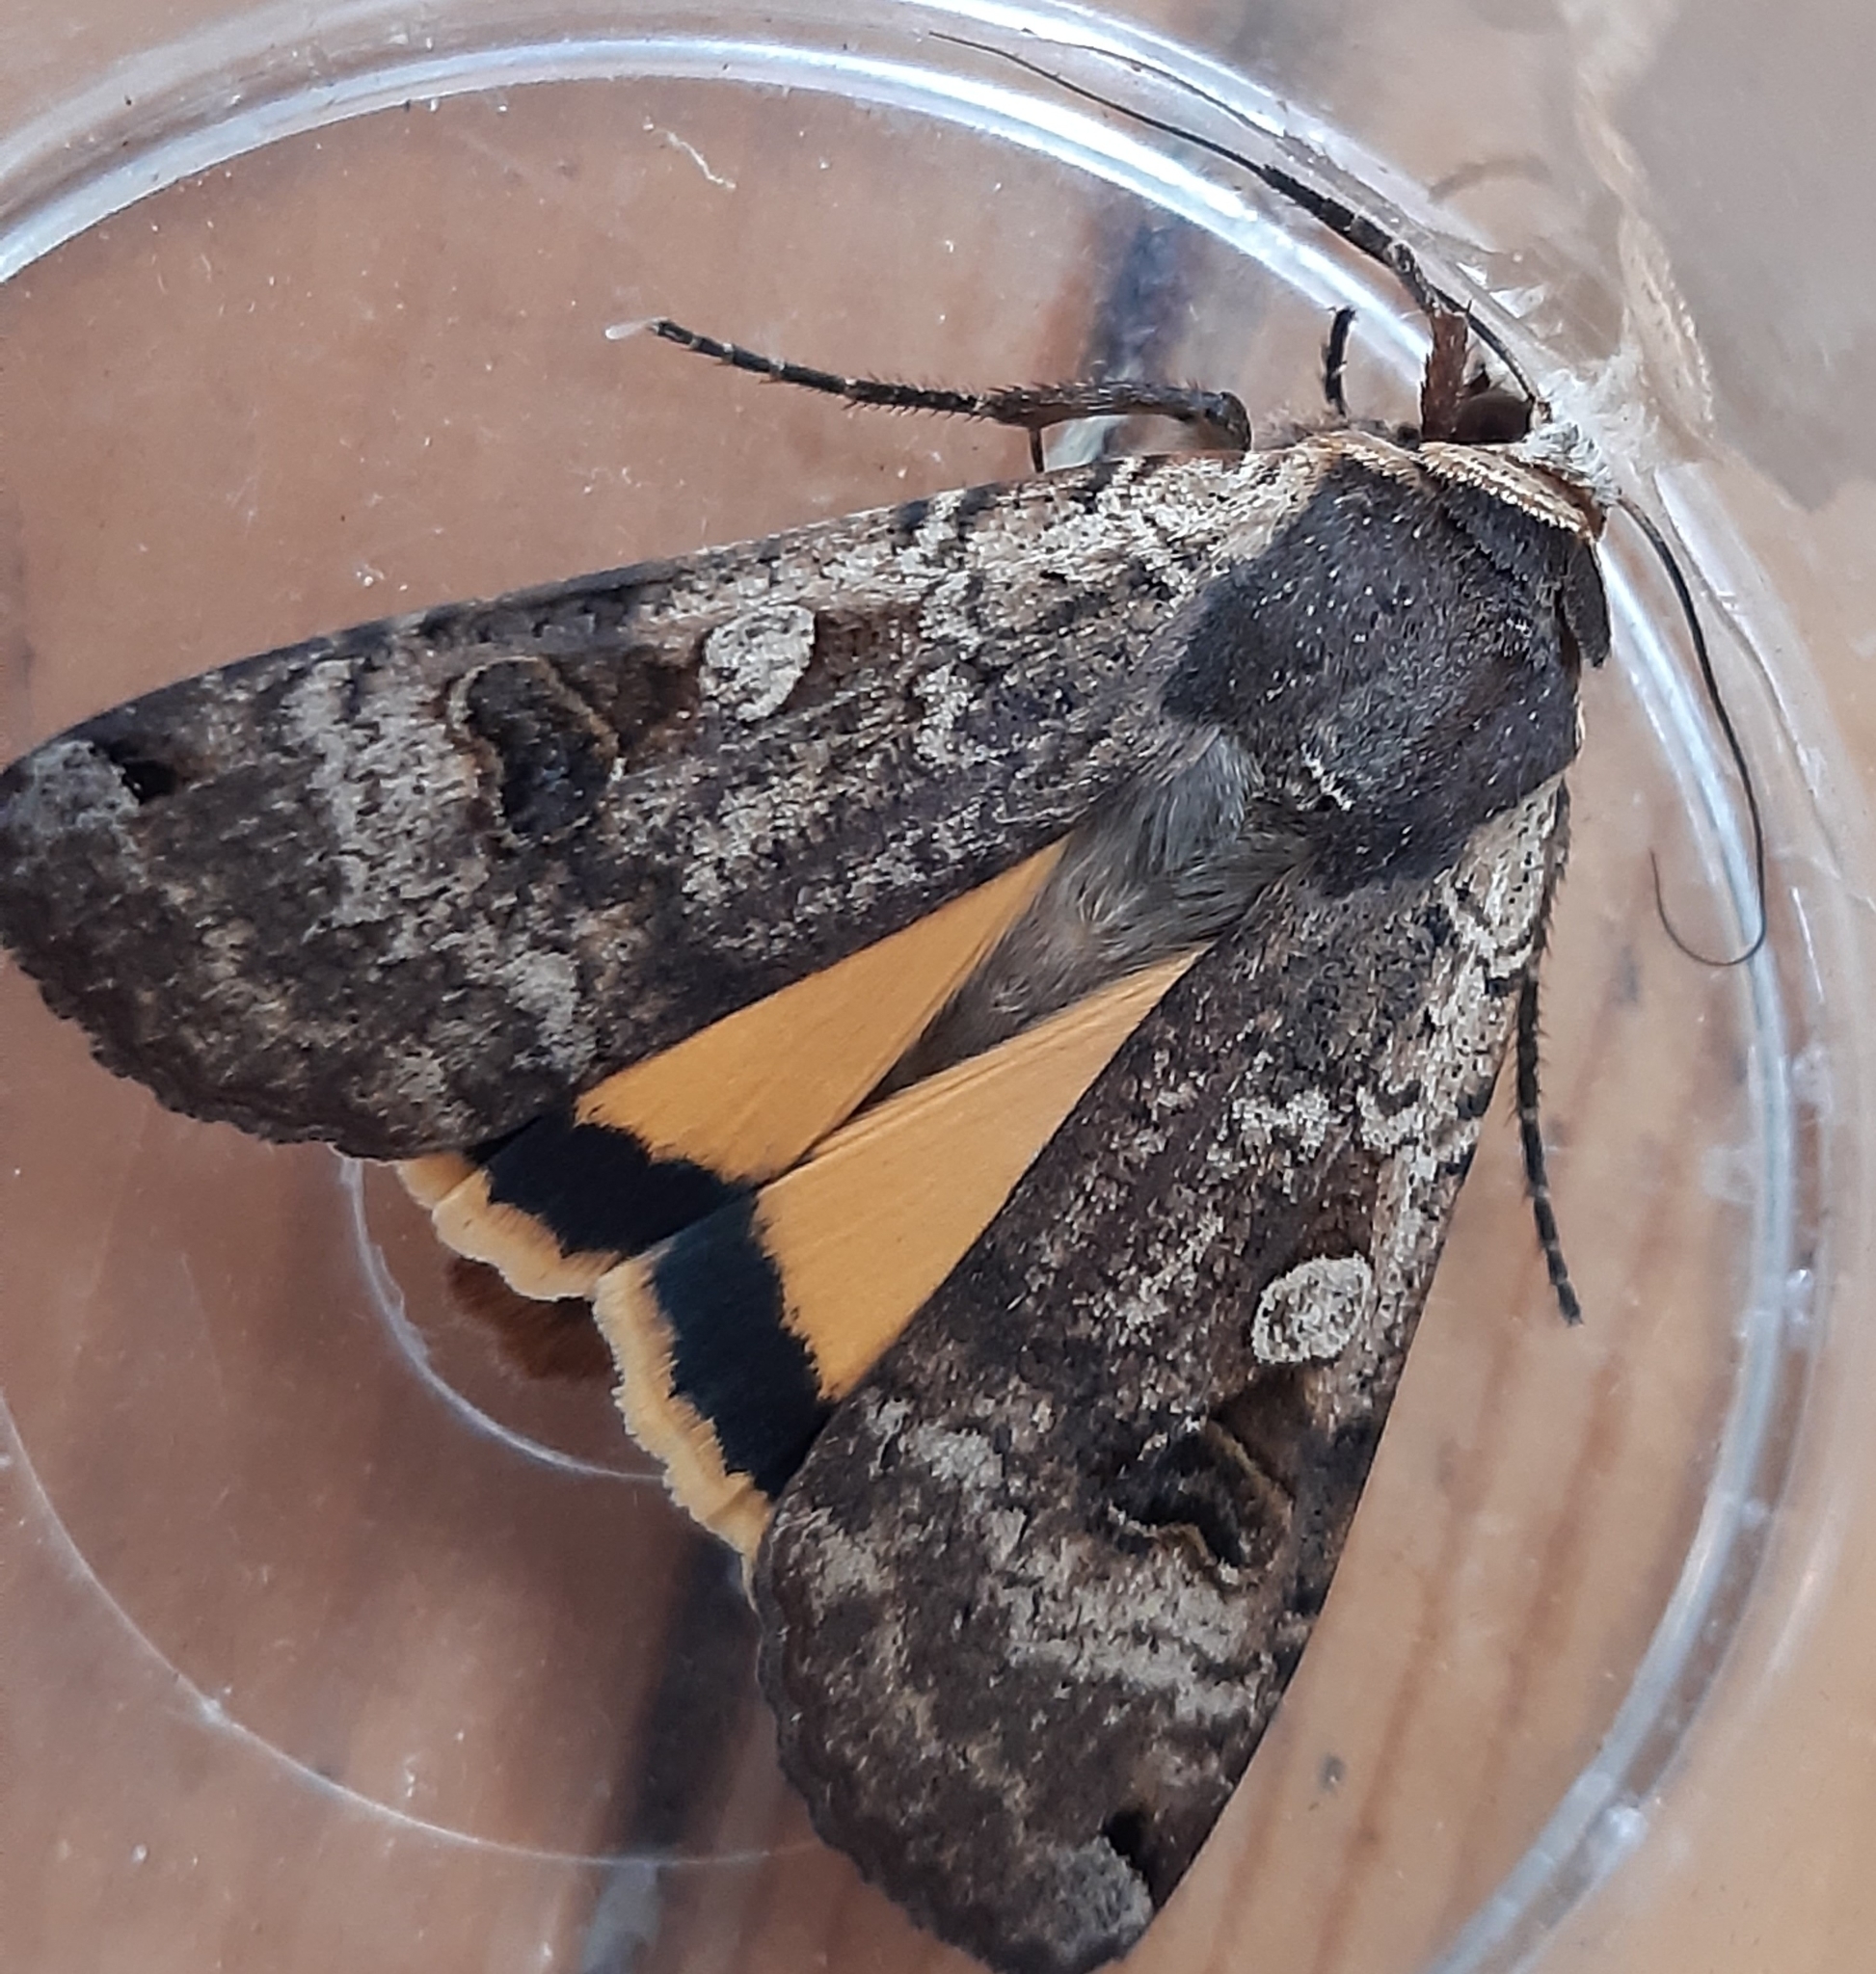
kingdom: Animalia
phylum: Arthropoda
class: Insecta
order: Lepidoptera
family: Noctuidae
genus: Noctua
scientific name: Noctua pronuba
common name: Large yellow underwing
